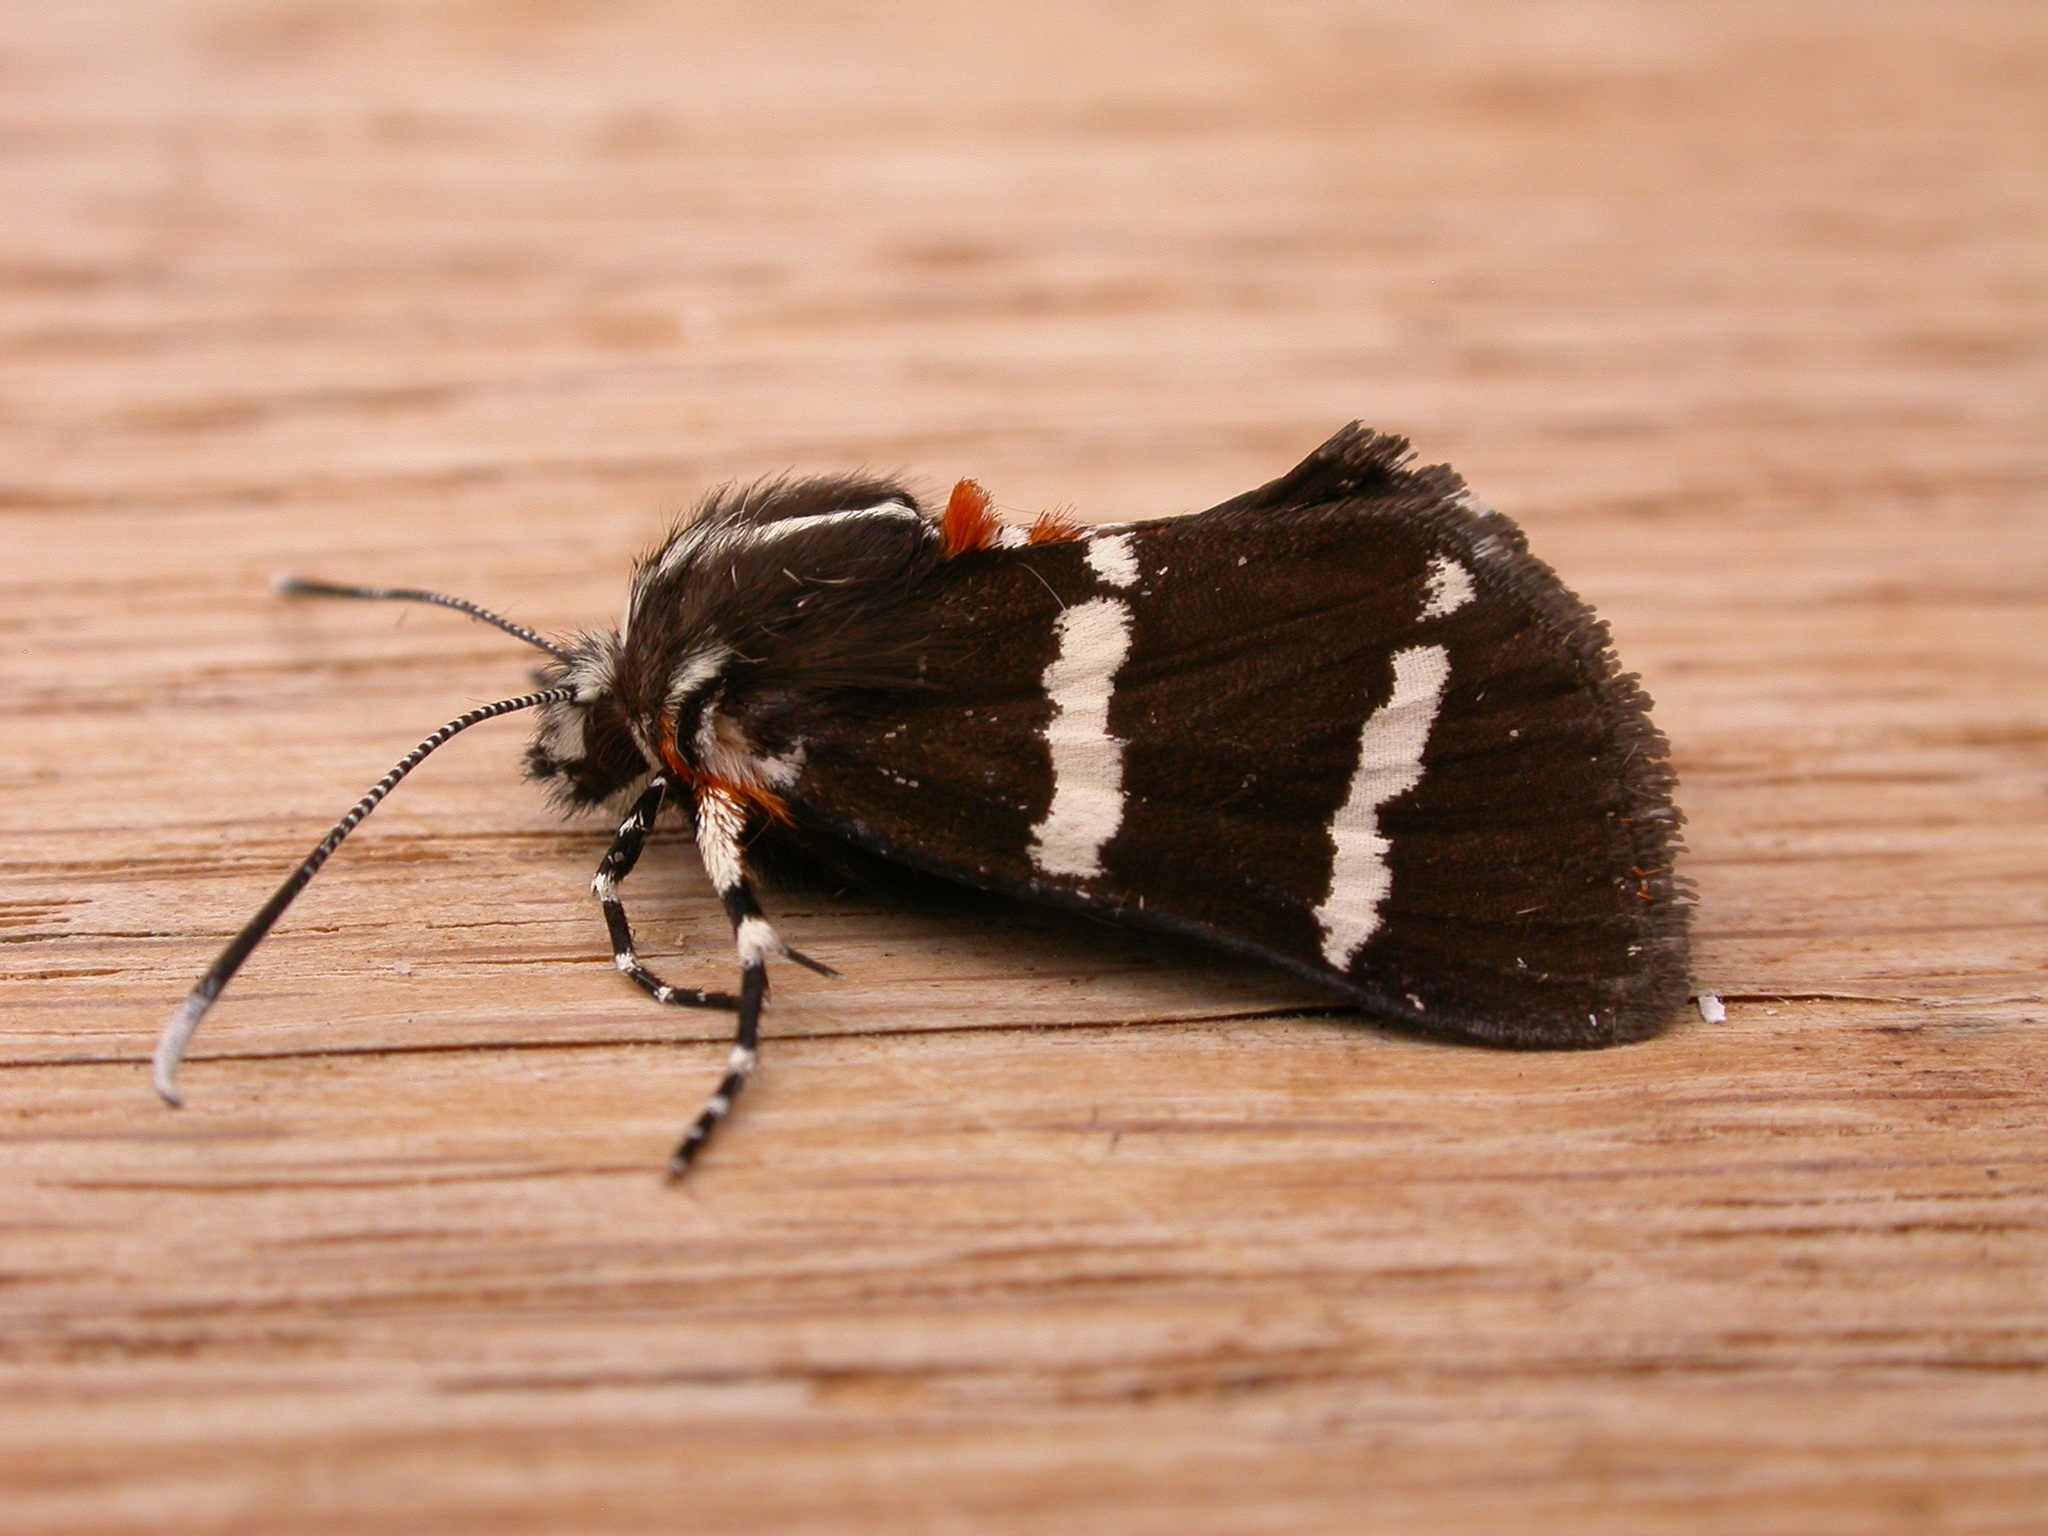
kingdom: Animalia
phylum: Arthropoda
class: Insecta
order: Lepidoptera
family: Noctuidae
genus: Hecatesia
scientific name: Hecatesia fenestrata
